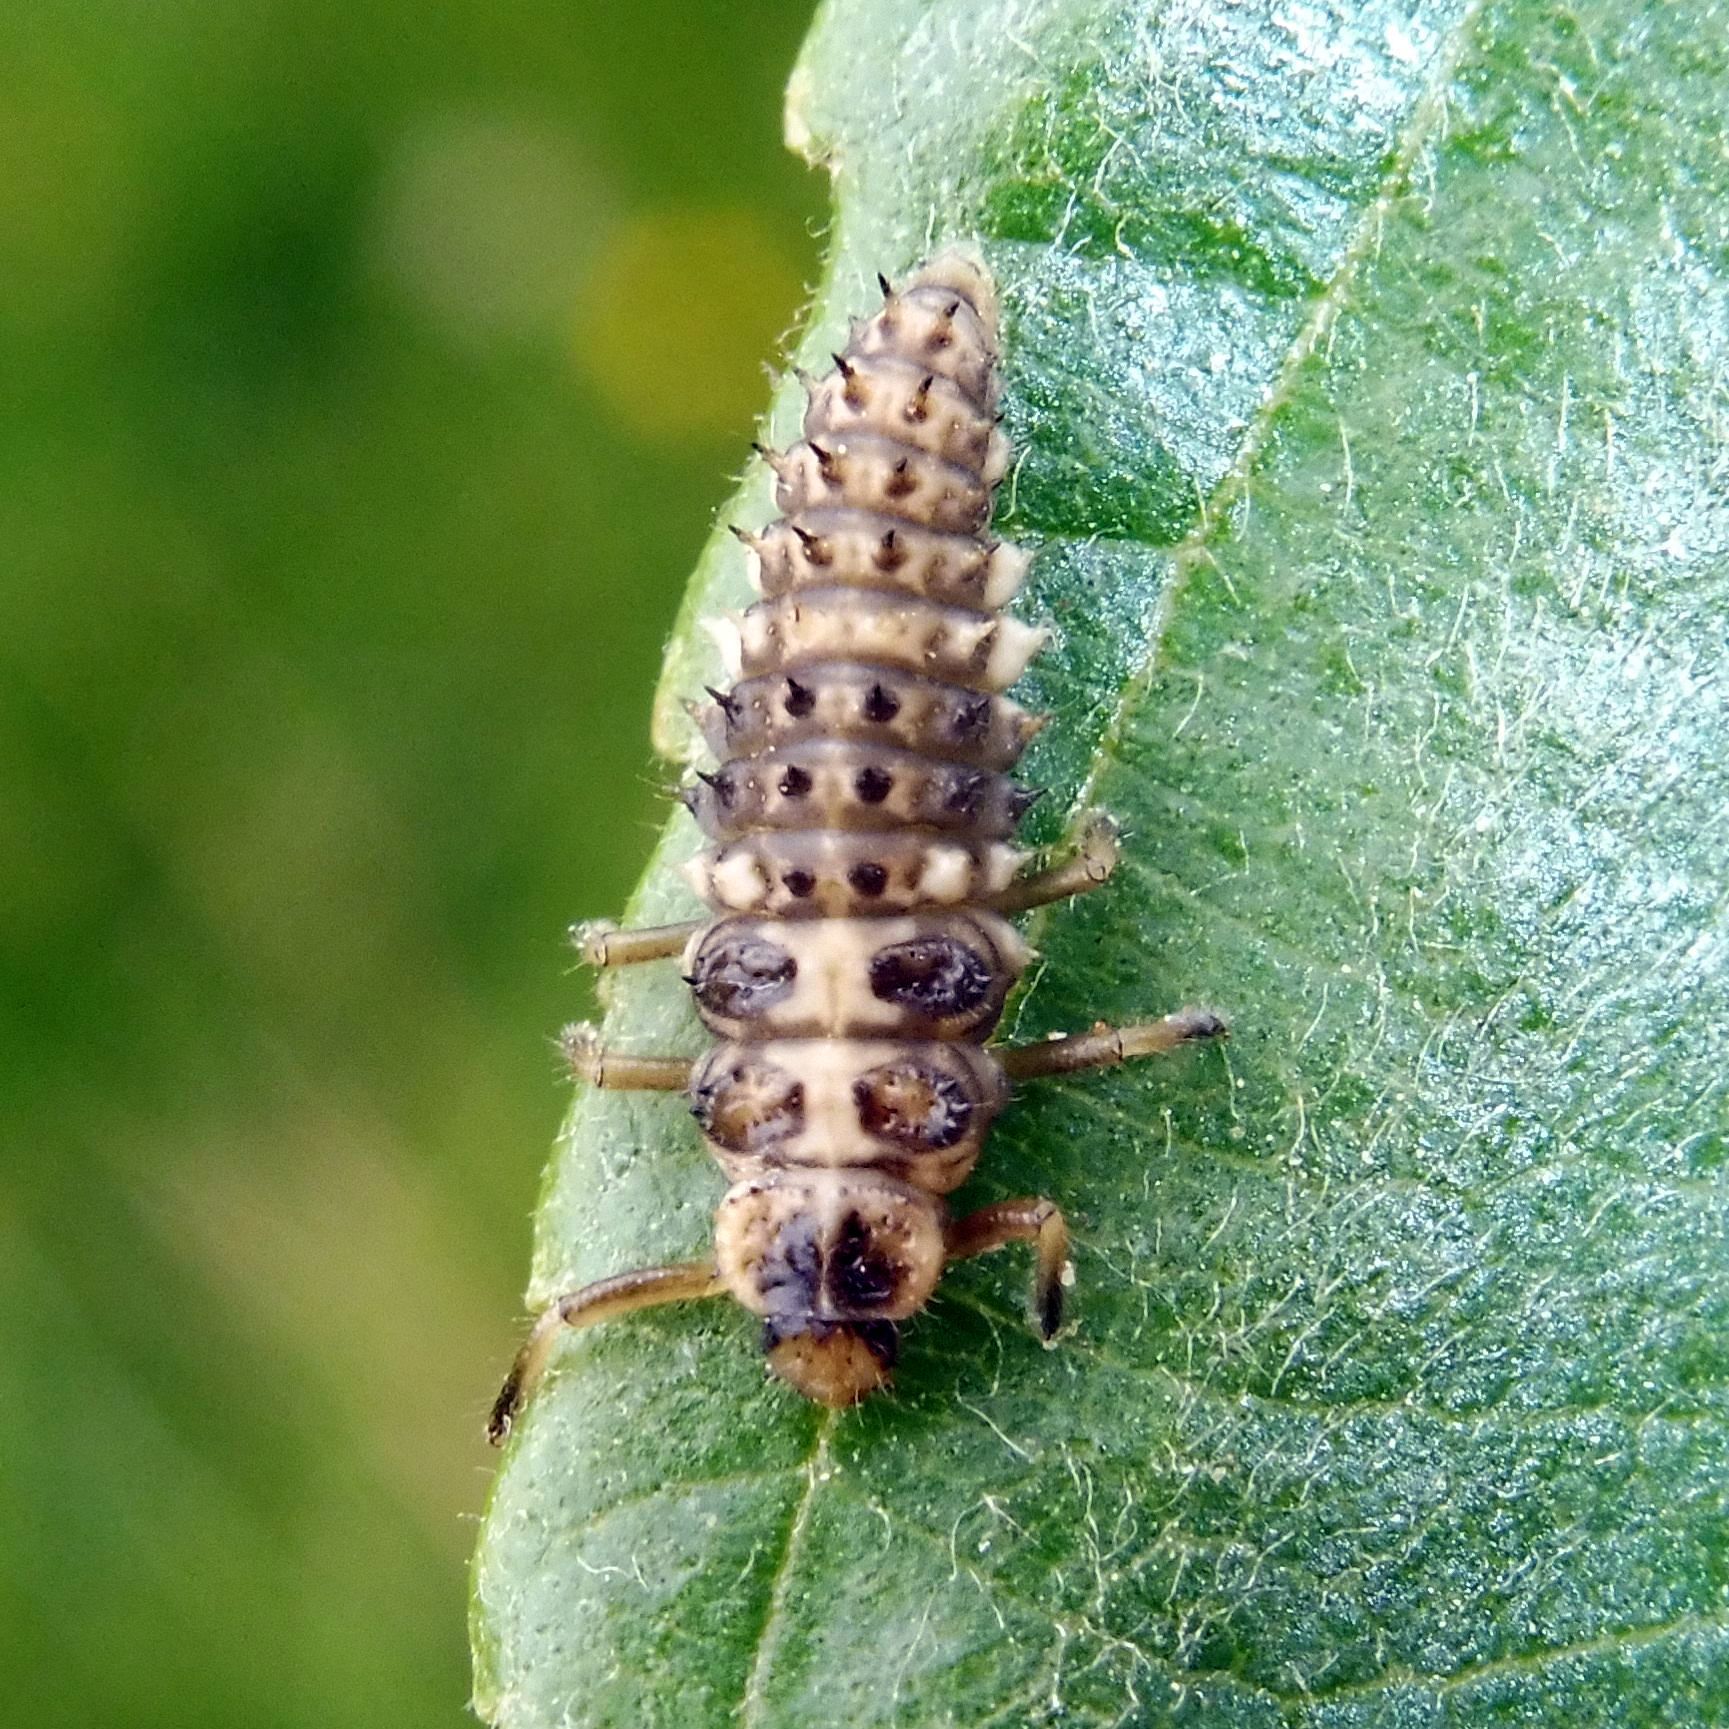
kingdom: Animalia
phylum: Arthropoda
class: Insecta
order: Coleoptera
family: Coccinellidae
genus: Calvia
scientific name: Calvia quatuordecimguttata
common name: Cream-spot ladybird
